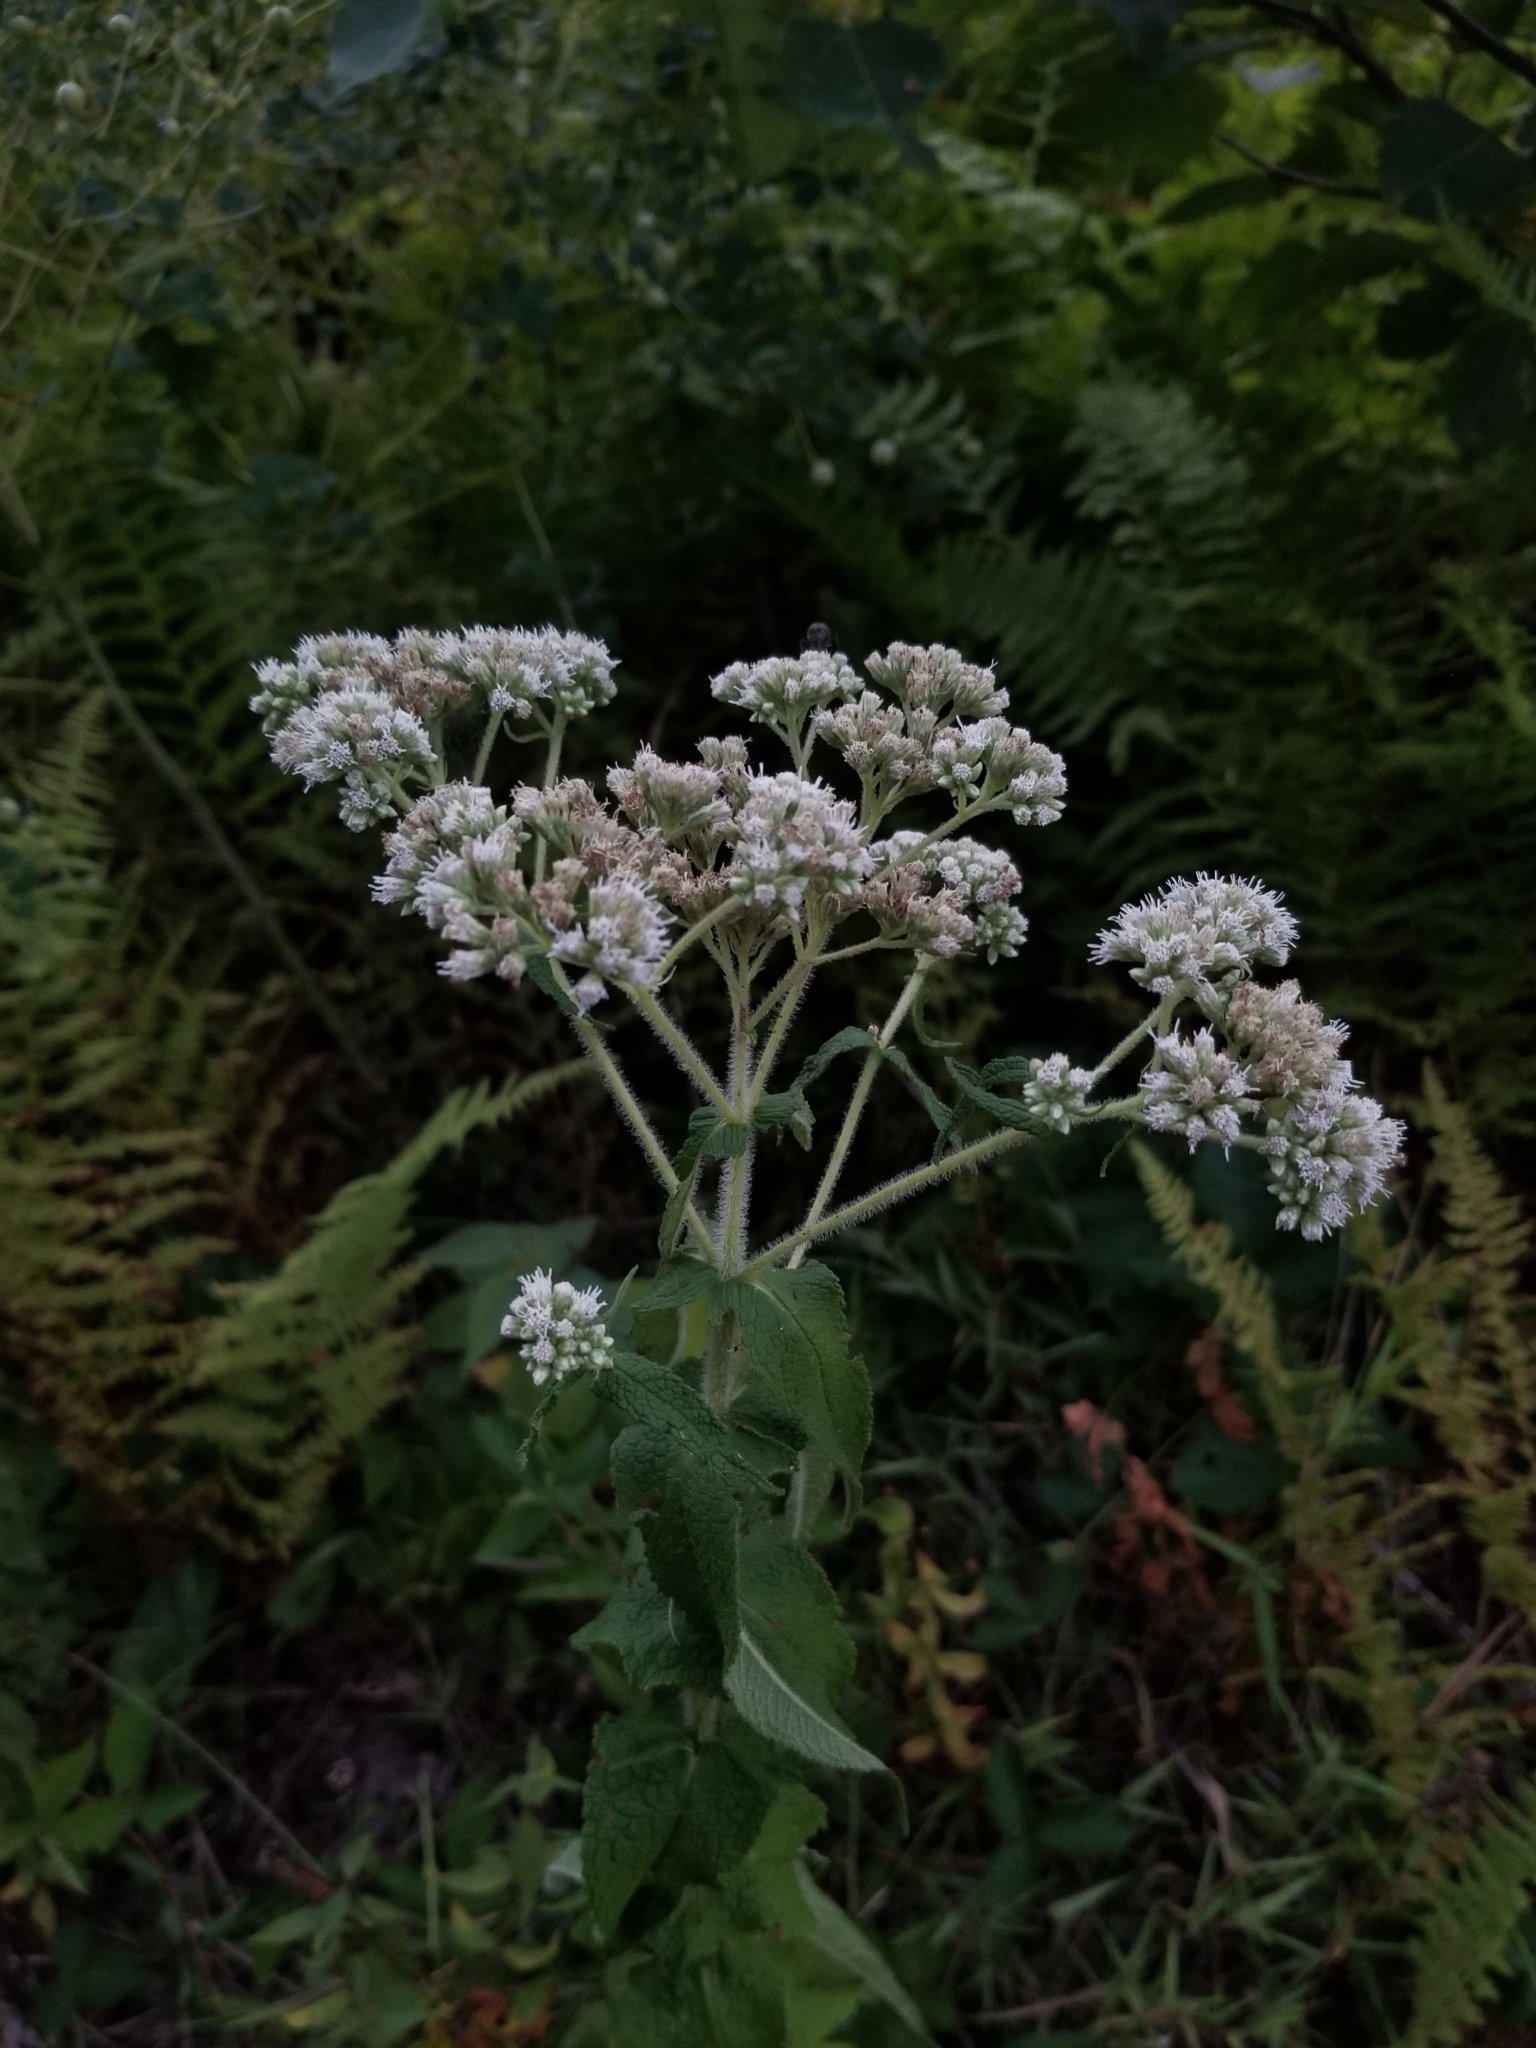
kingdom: Plantae
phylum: Tracheophyta
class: Magnoliopsida
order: Asterales
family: Asteraceae
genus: Eupatorium
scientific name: Eupatorium perfoliatum
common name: Boneset
